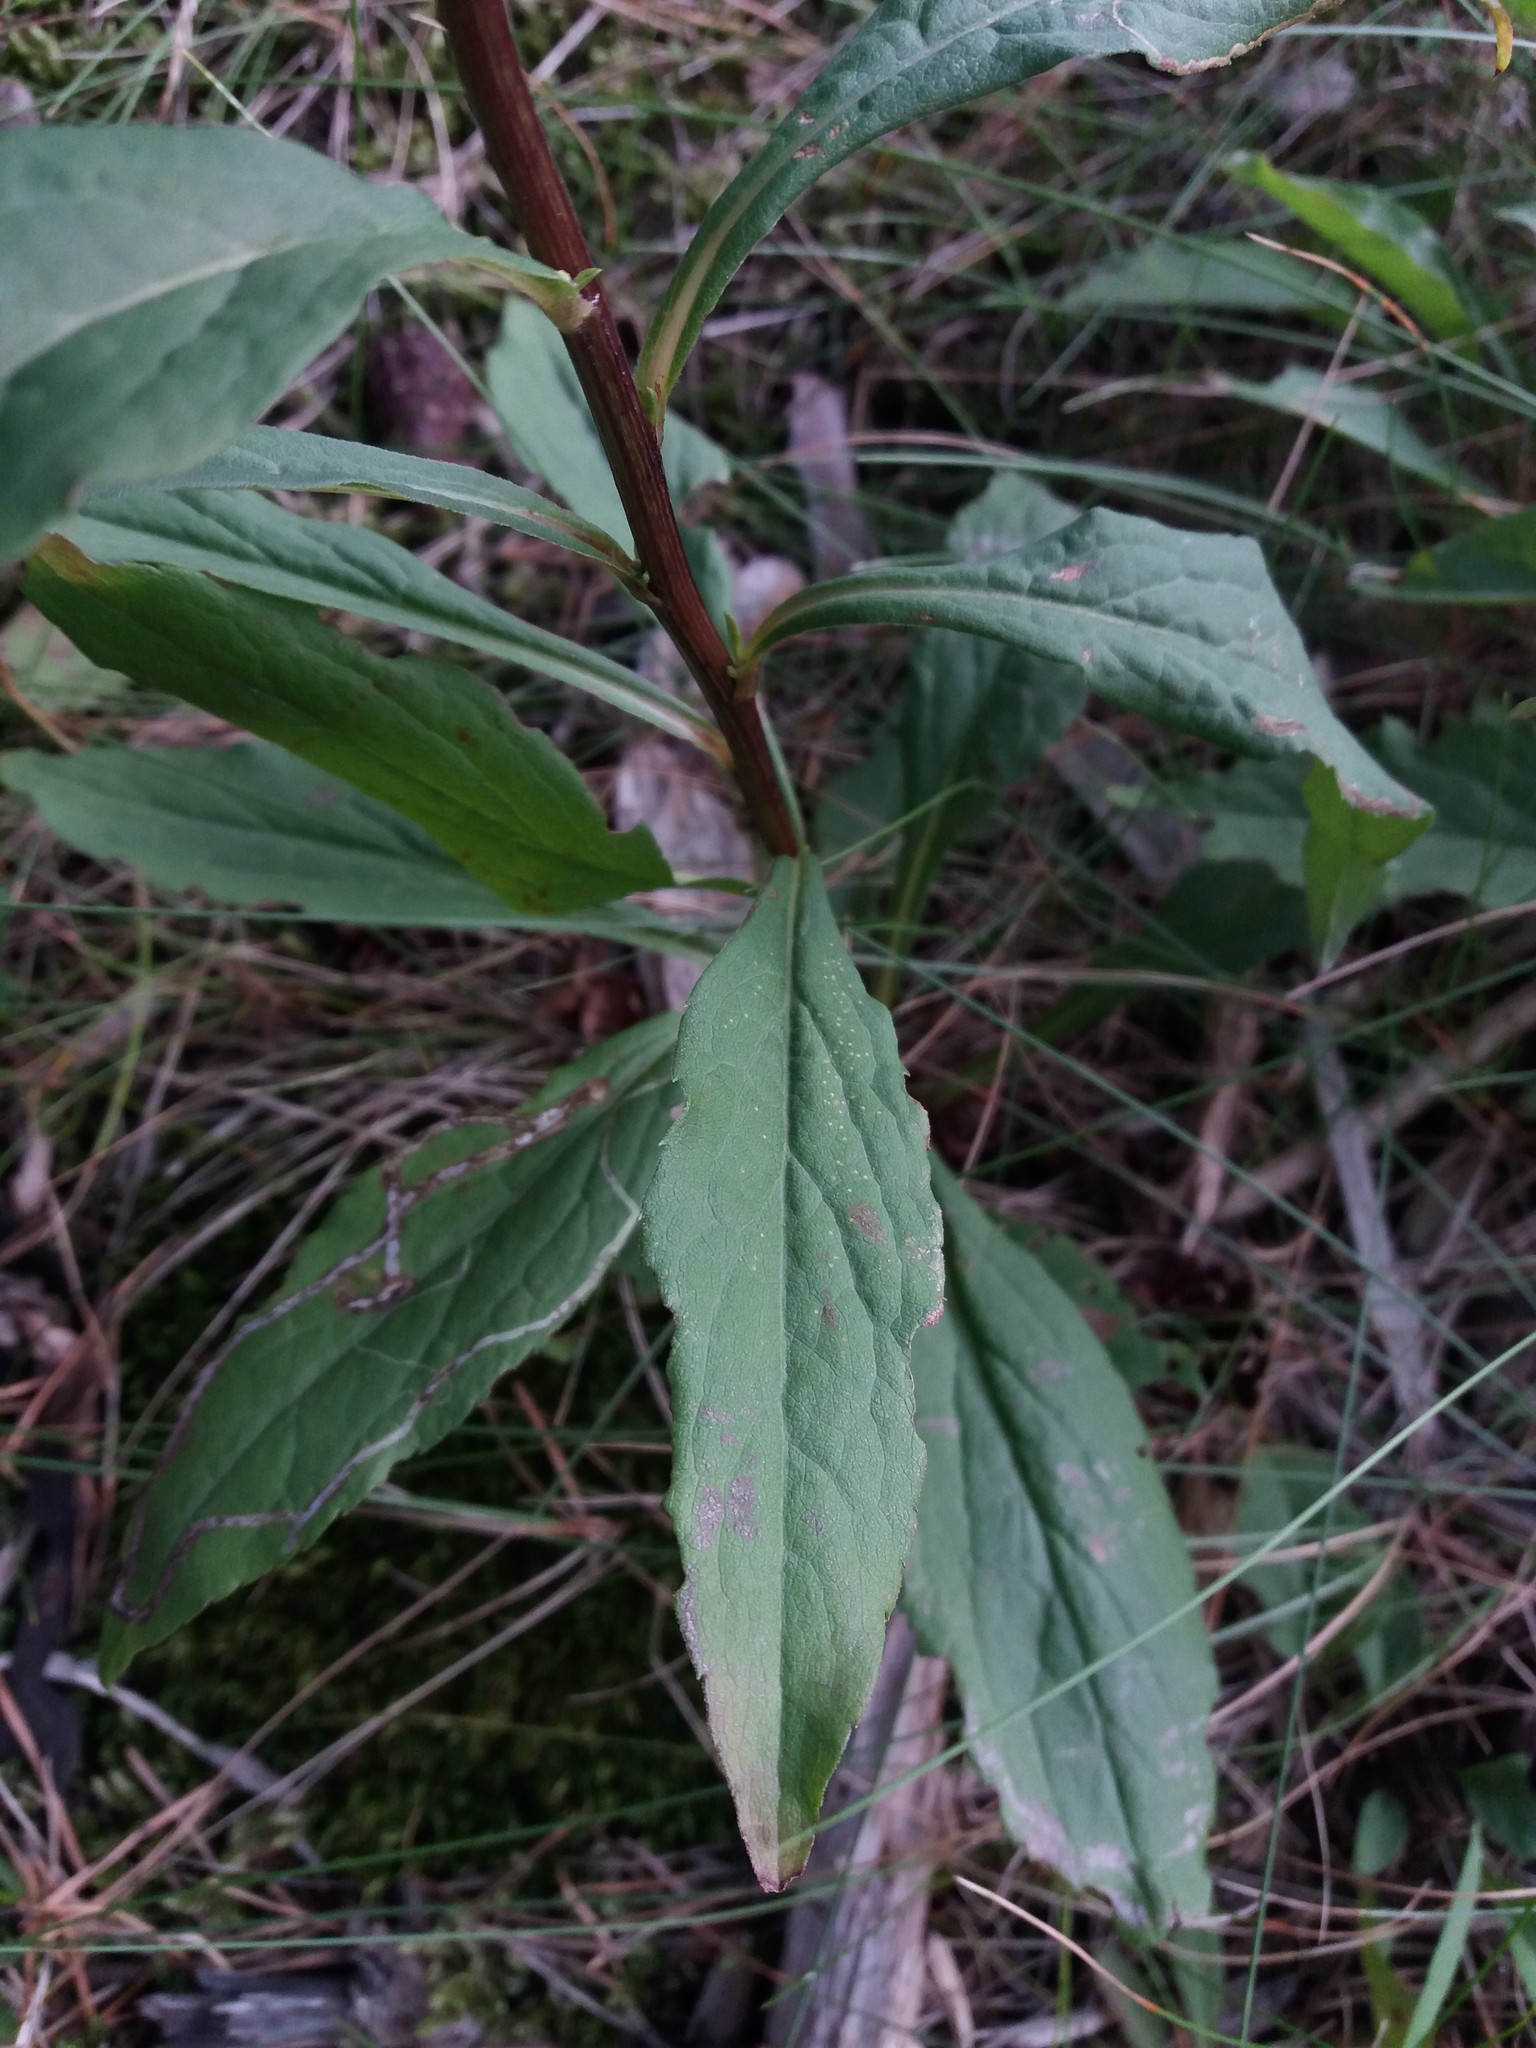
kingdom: Plantae
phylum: Tracheophyta
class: Magnoliopsida
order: Asterales
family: Asteraceae
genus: Solidago
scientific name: Solidago virgaurea
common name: Goldenrod
